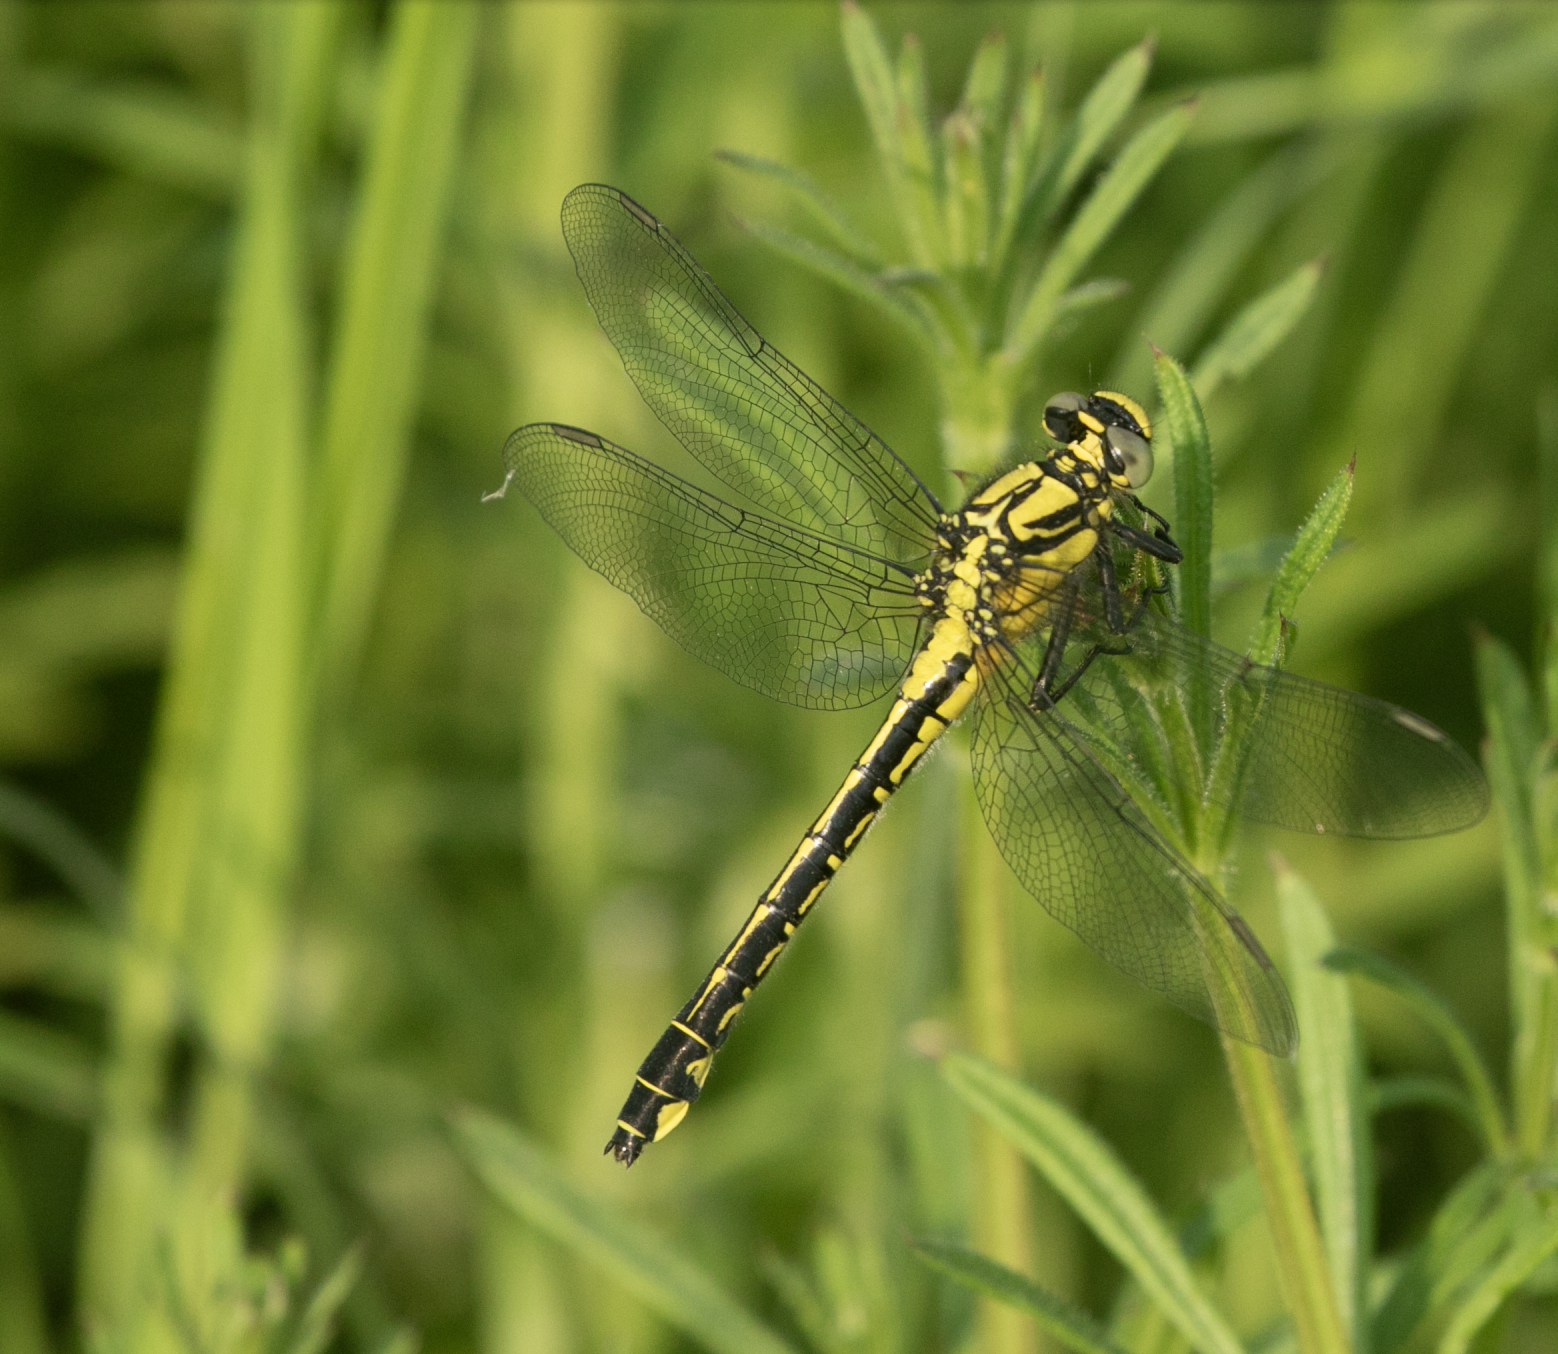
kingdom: Animalia
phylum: Arthropoda
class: Insecta
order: Odonata
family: Gomphidae
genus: Gomphus
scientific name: Gomphus vulgatissimus
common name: Club-tailed dragonfly
